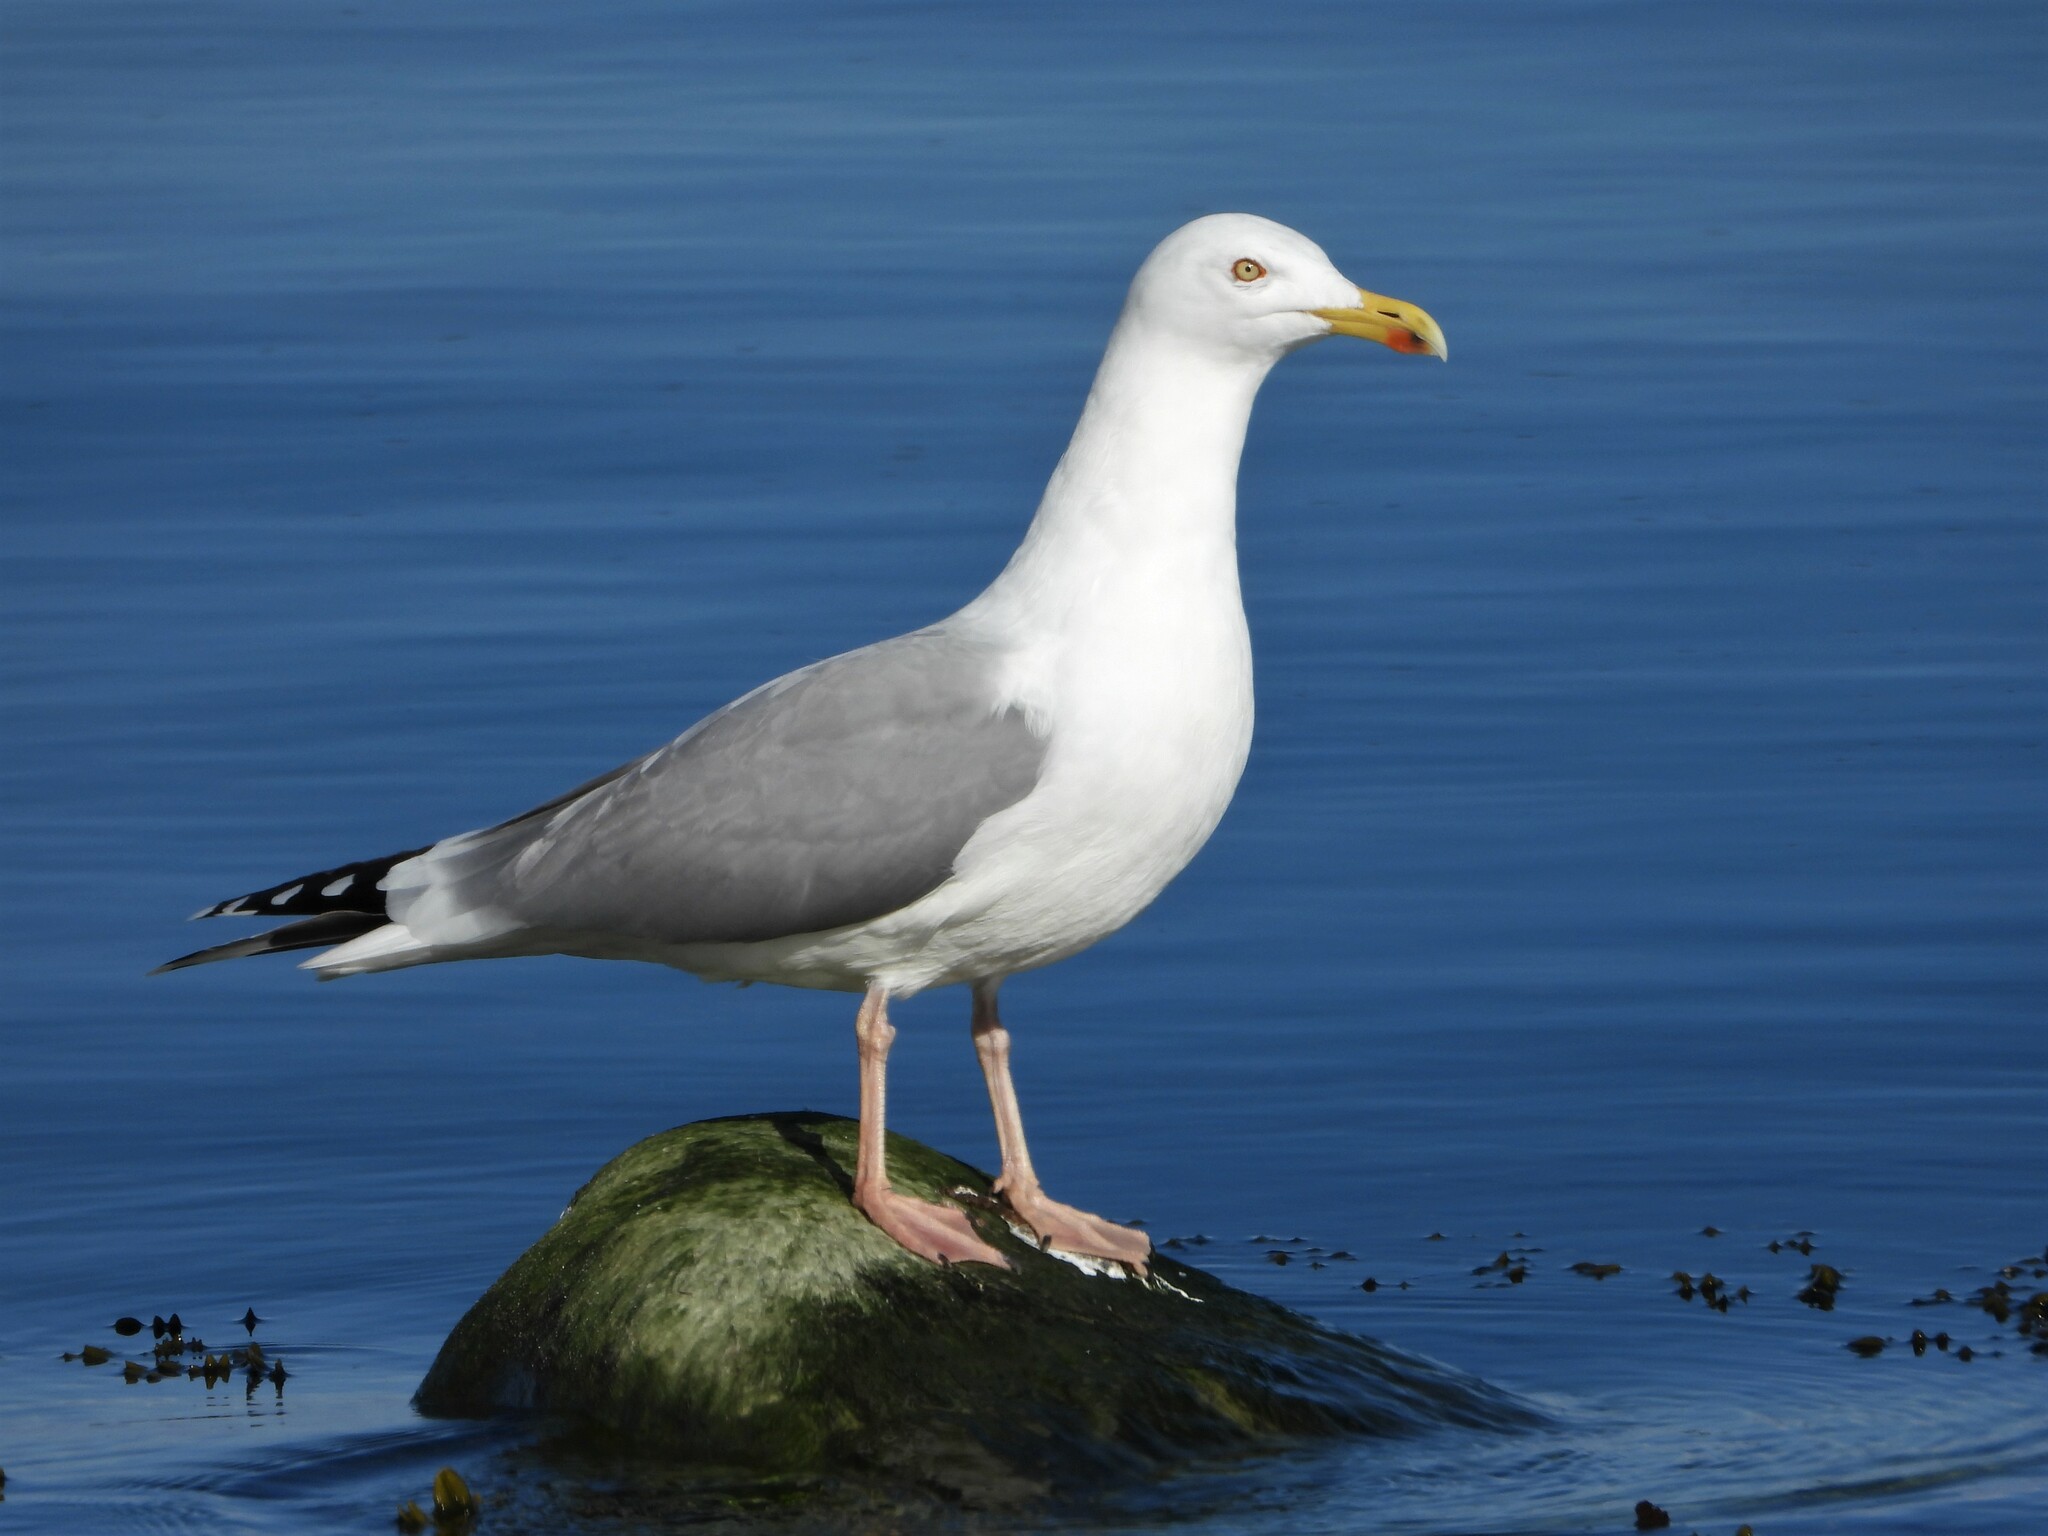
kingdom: Animalia
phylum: Chordata
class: Aves
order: Charadriiformes
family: Laridae
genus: Larus
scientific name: Larus argentatus
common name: Herring gull
